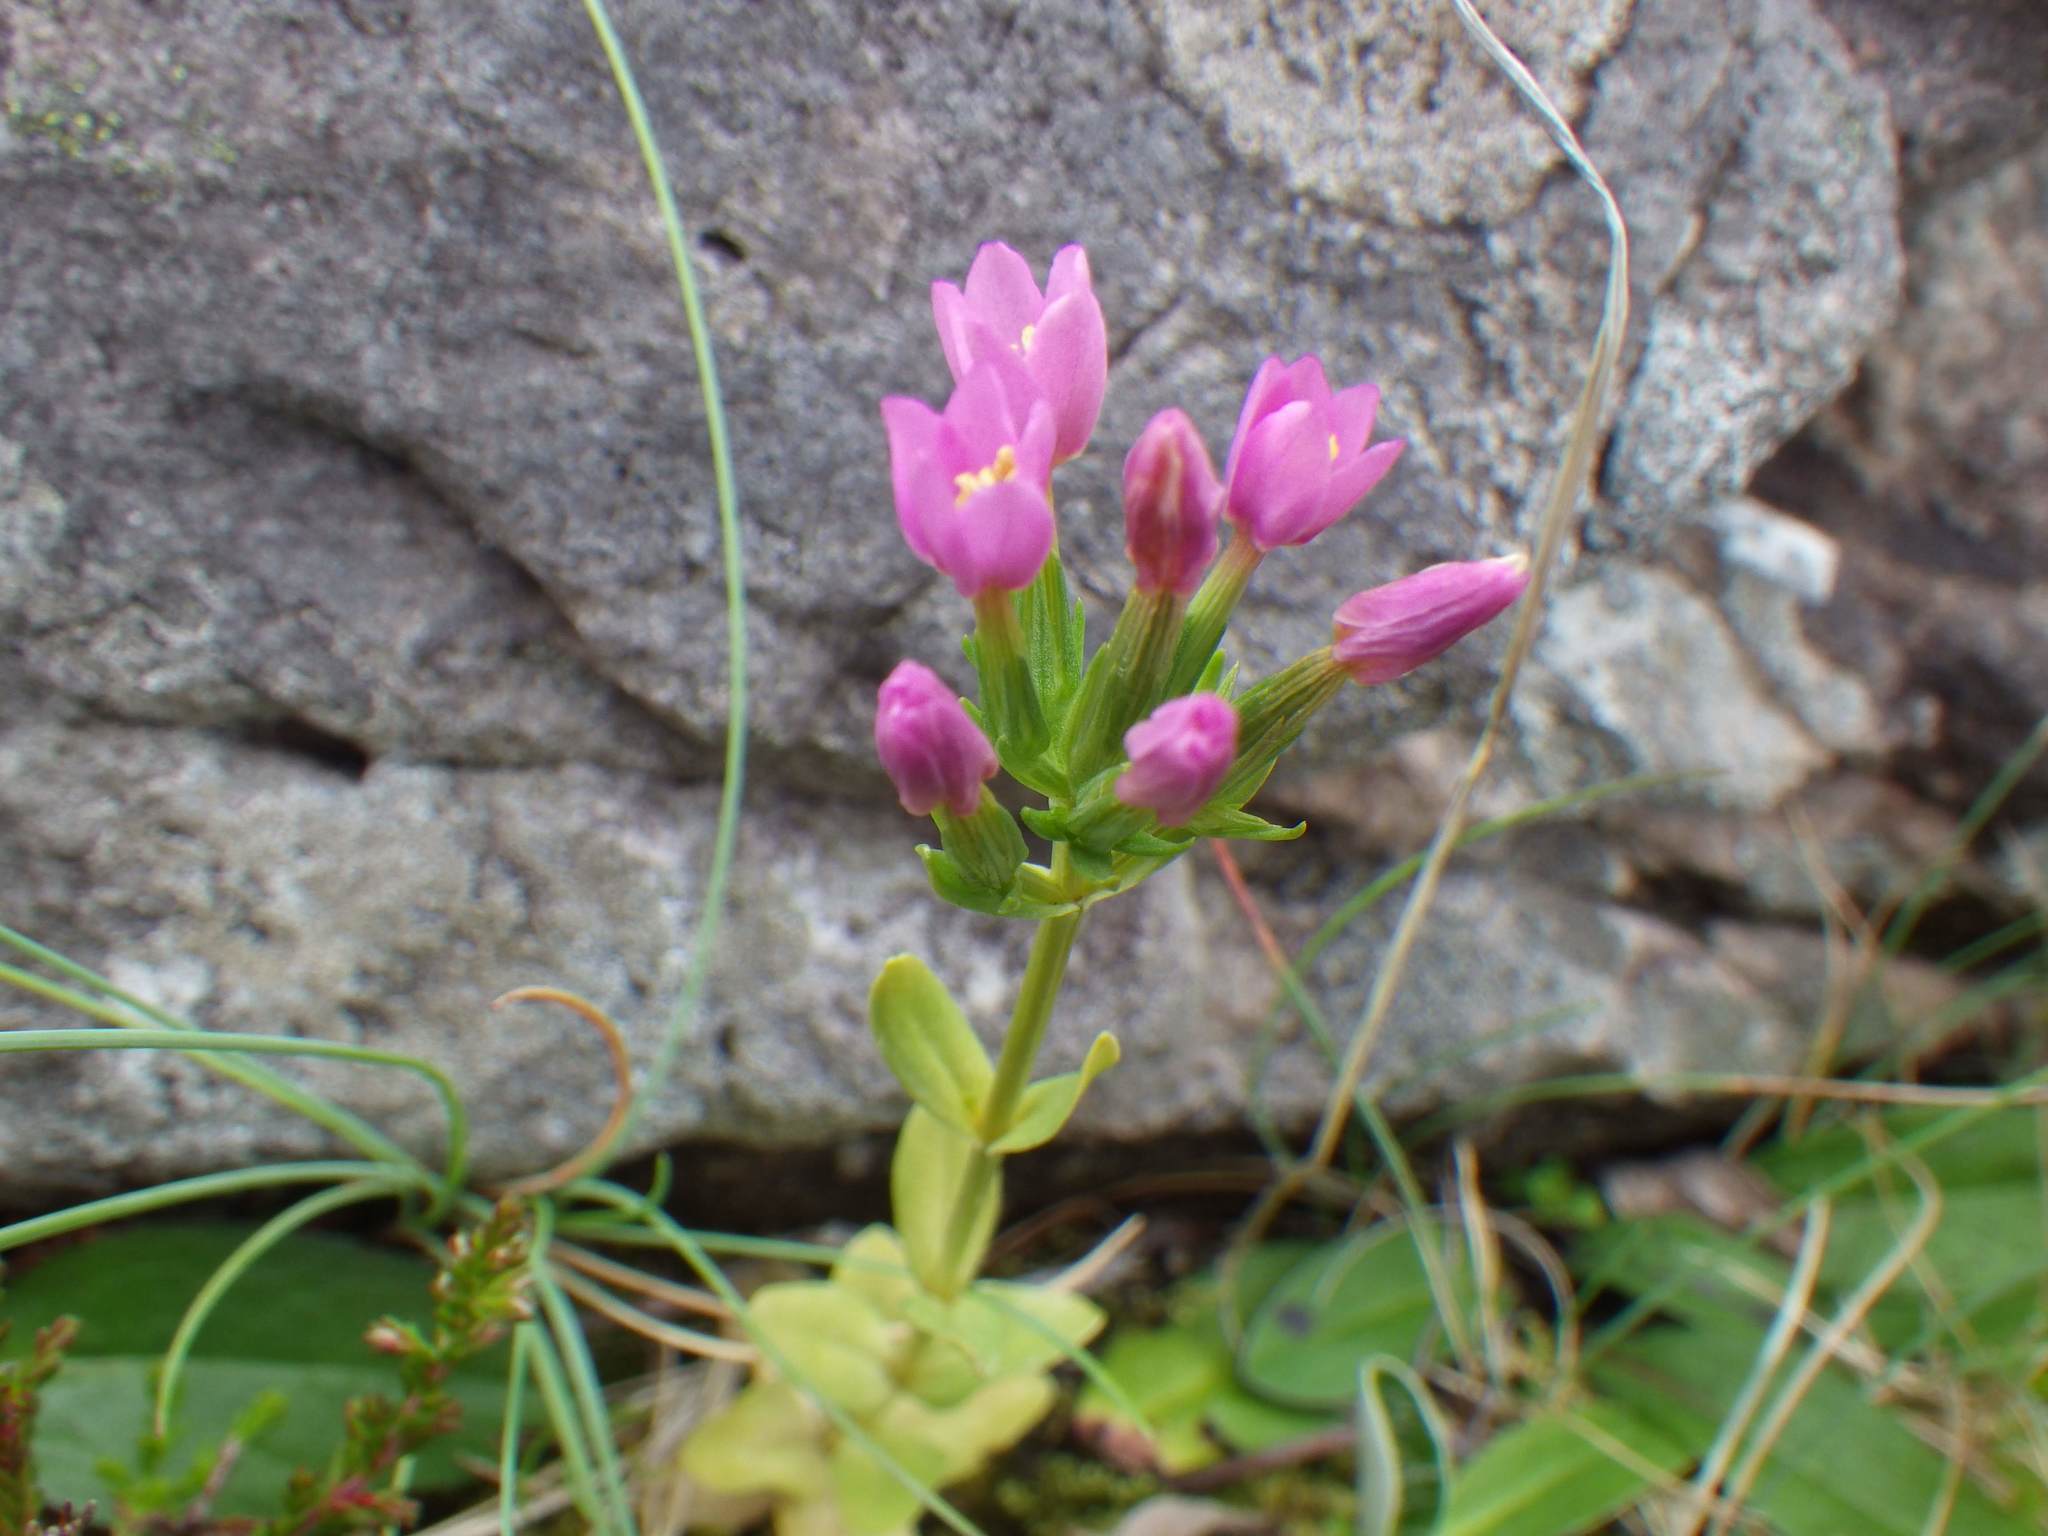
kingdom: Plantae
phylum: Tracheophyta
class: Magnoliopsida
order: Gentianales
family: Gentianaceae
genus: Centaurium
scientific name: Centaurium erythraea
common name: Common centaury
